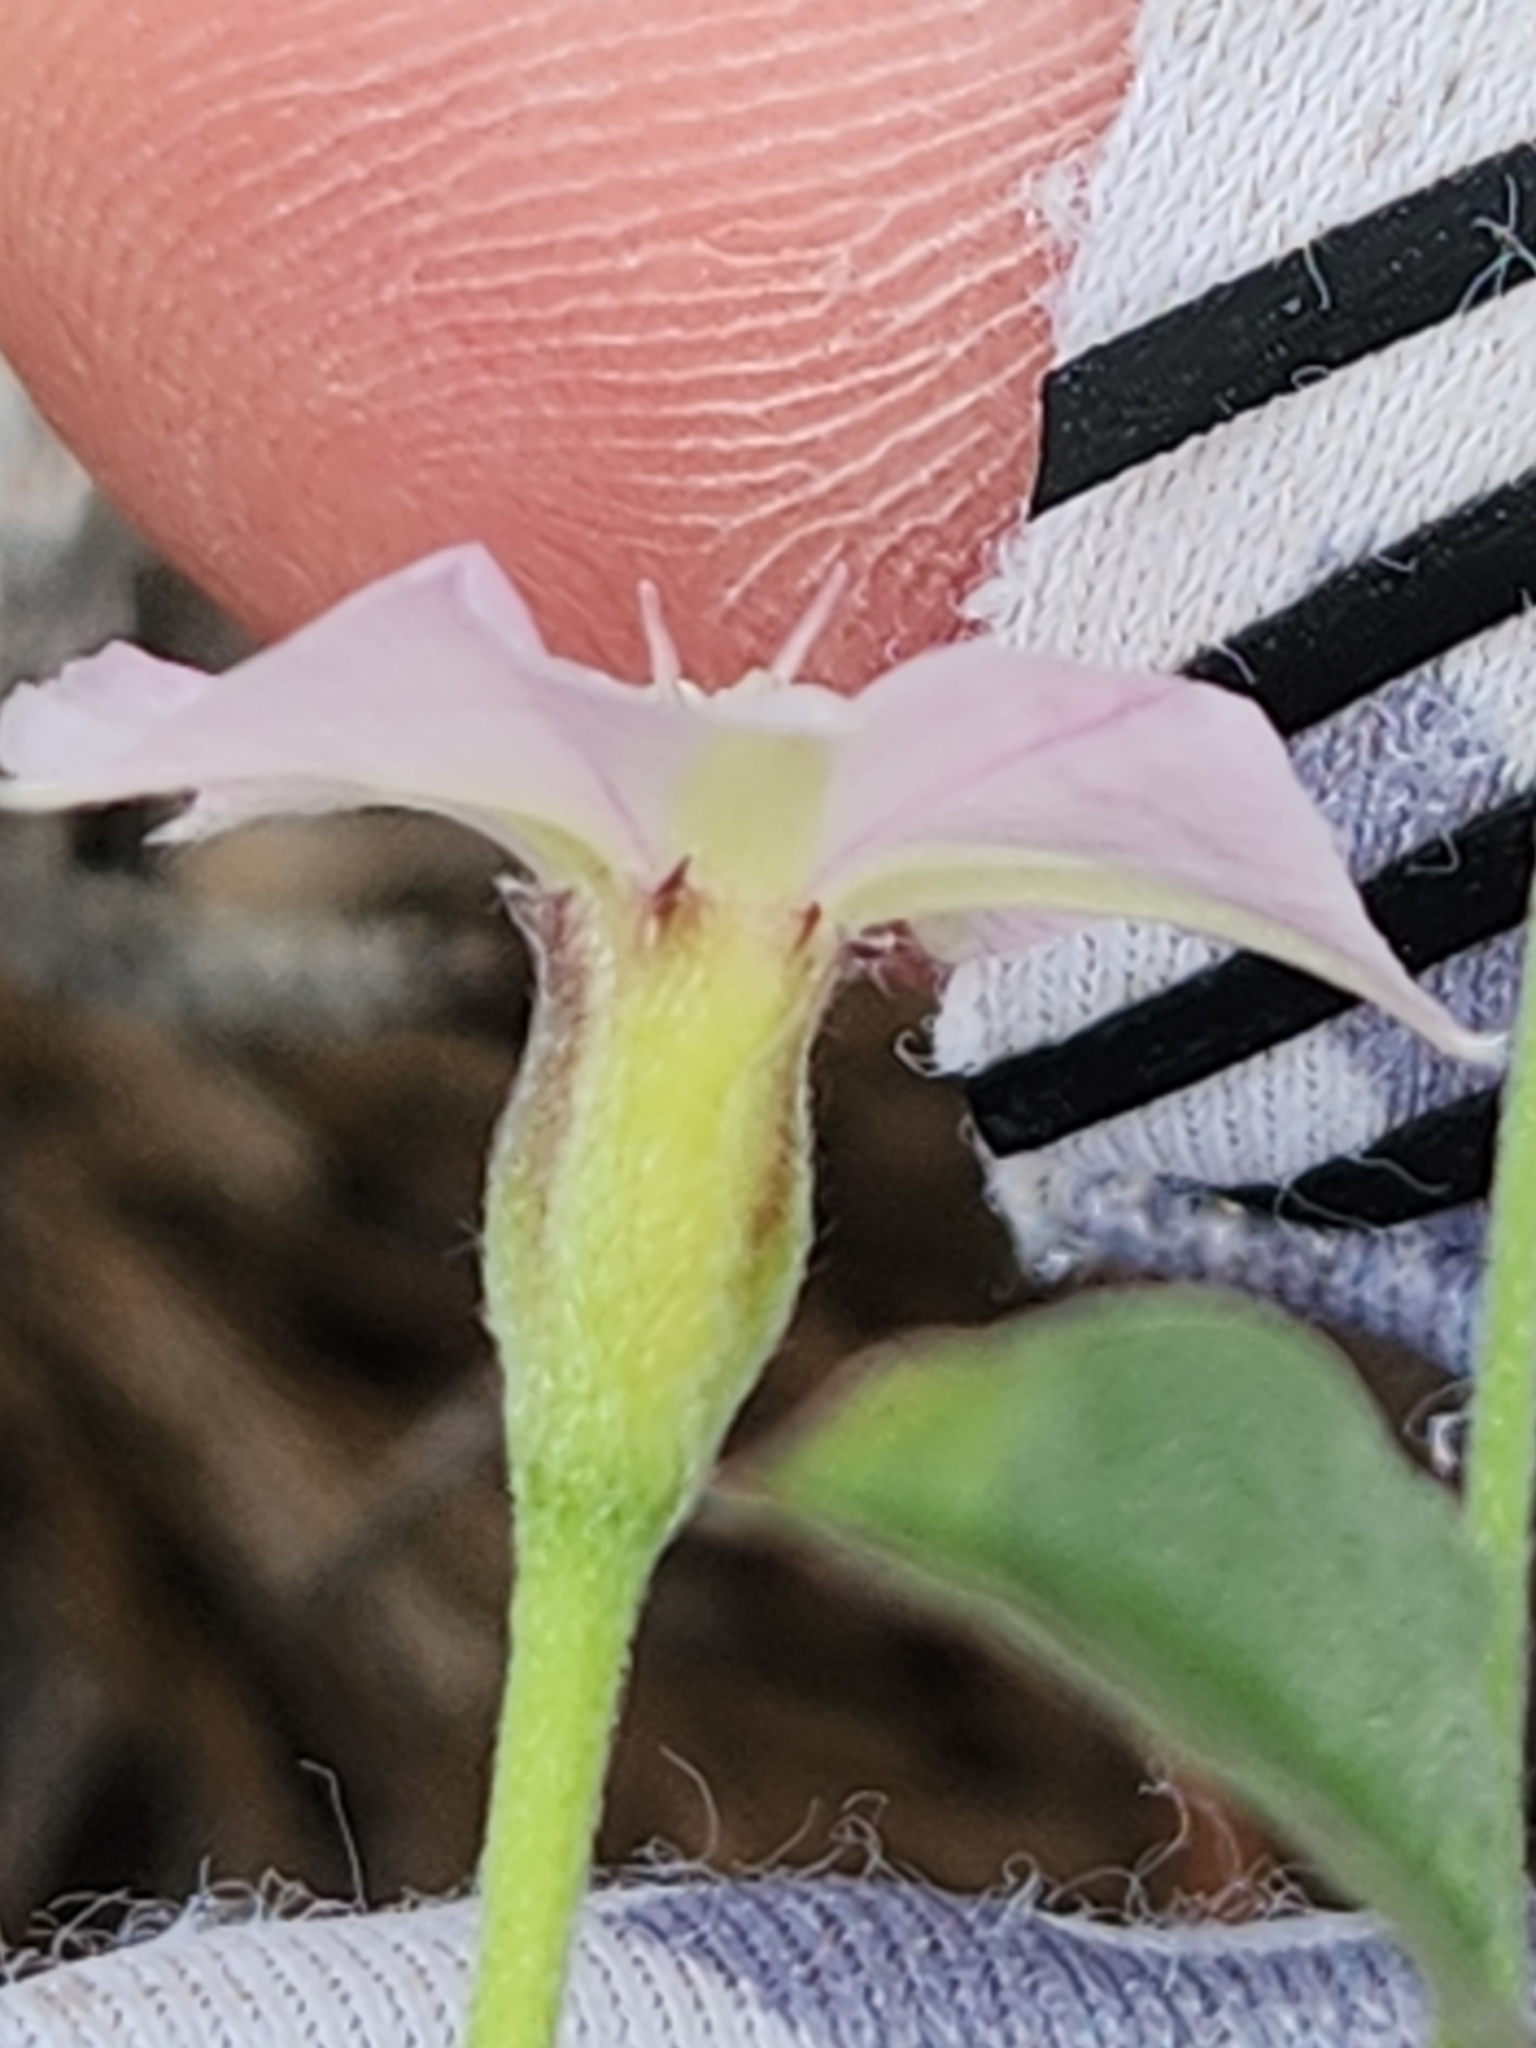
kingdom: Plantae
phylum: Tracheophyta
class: Magnoliopsida
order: Solanales
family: Convolvulaceae
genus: Convolvulus
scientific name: Convolvulus equitans
